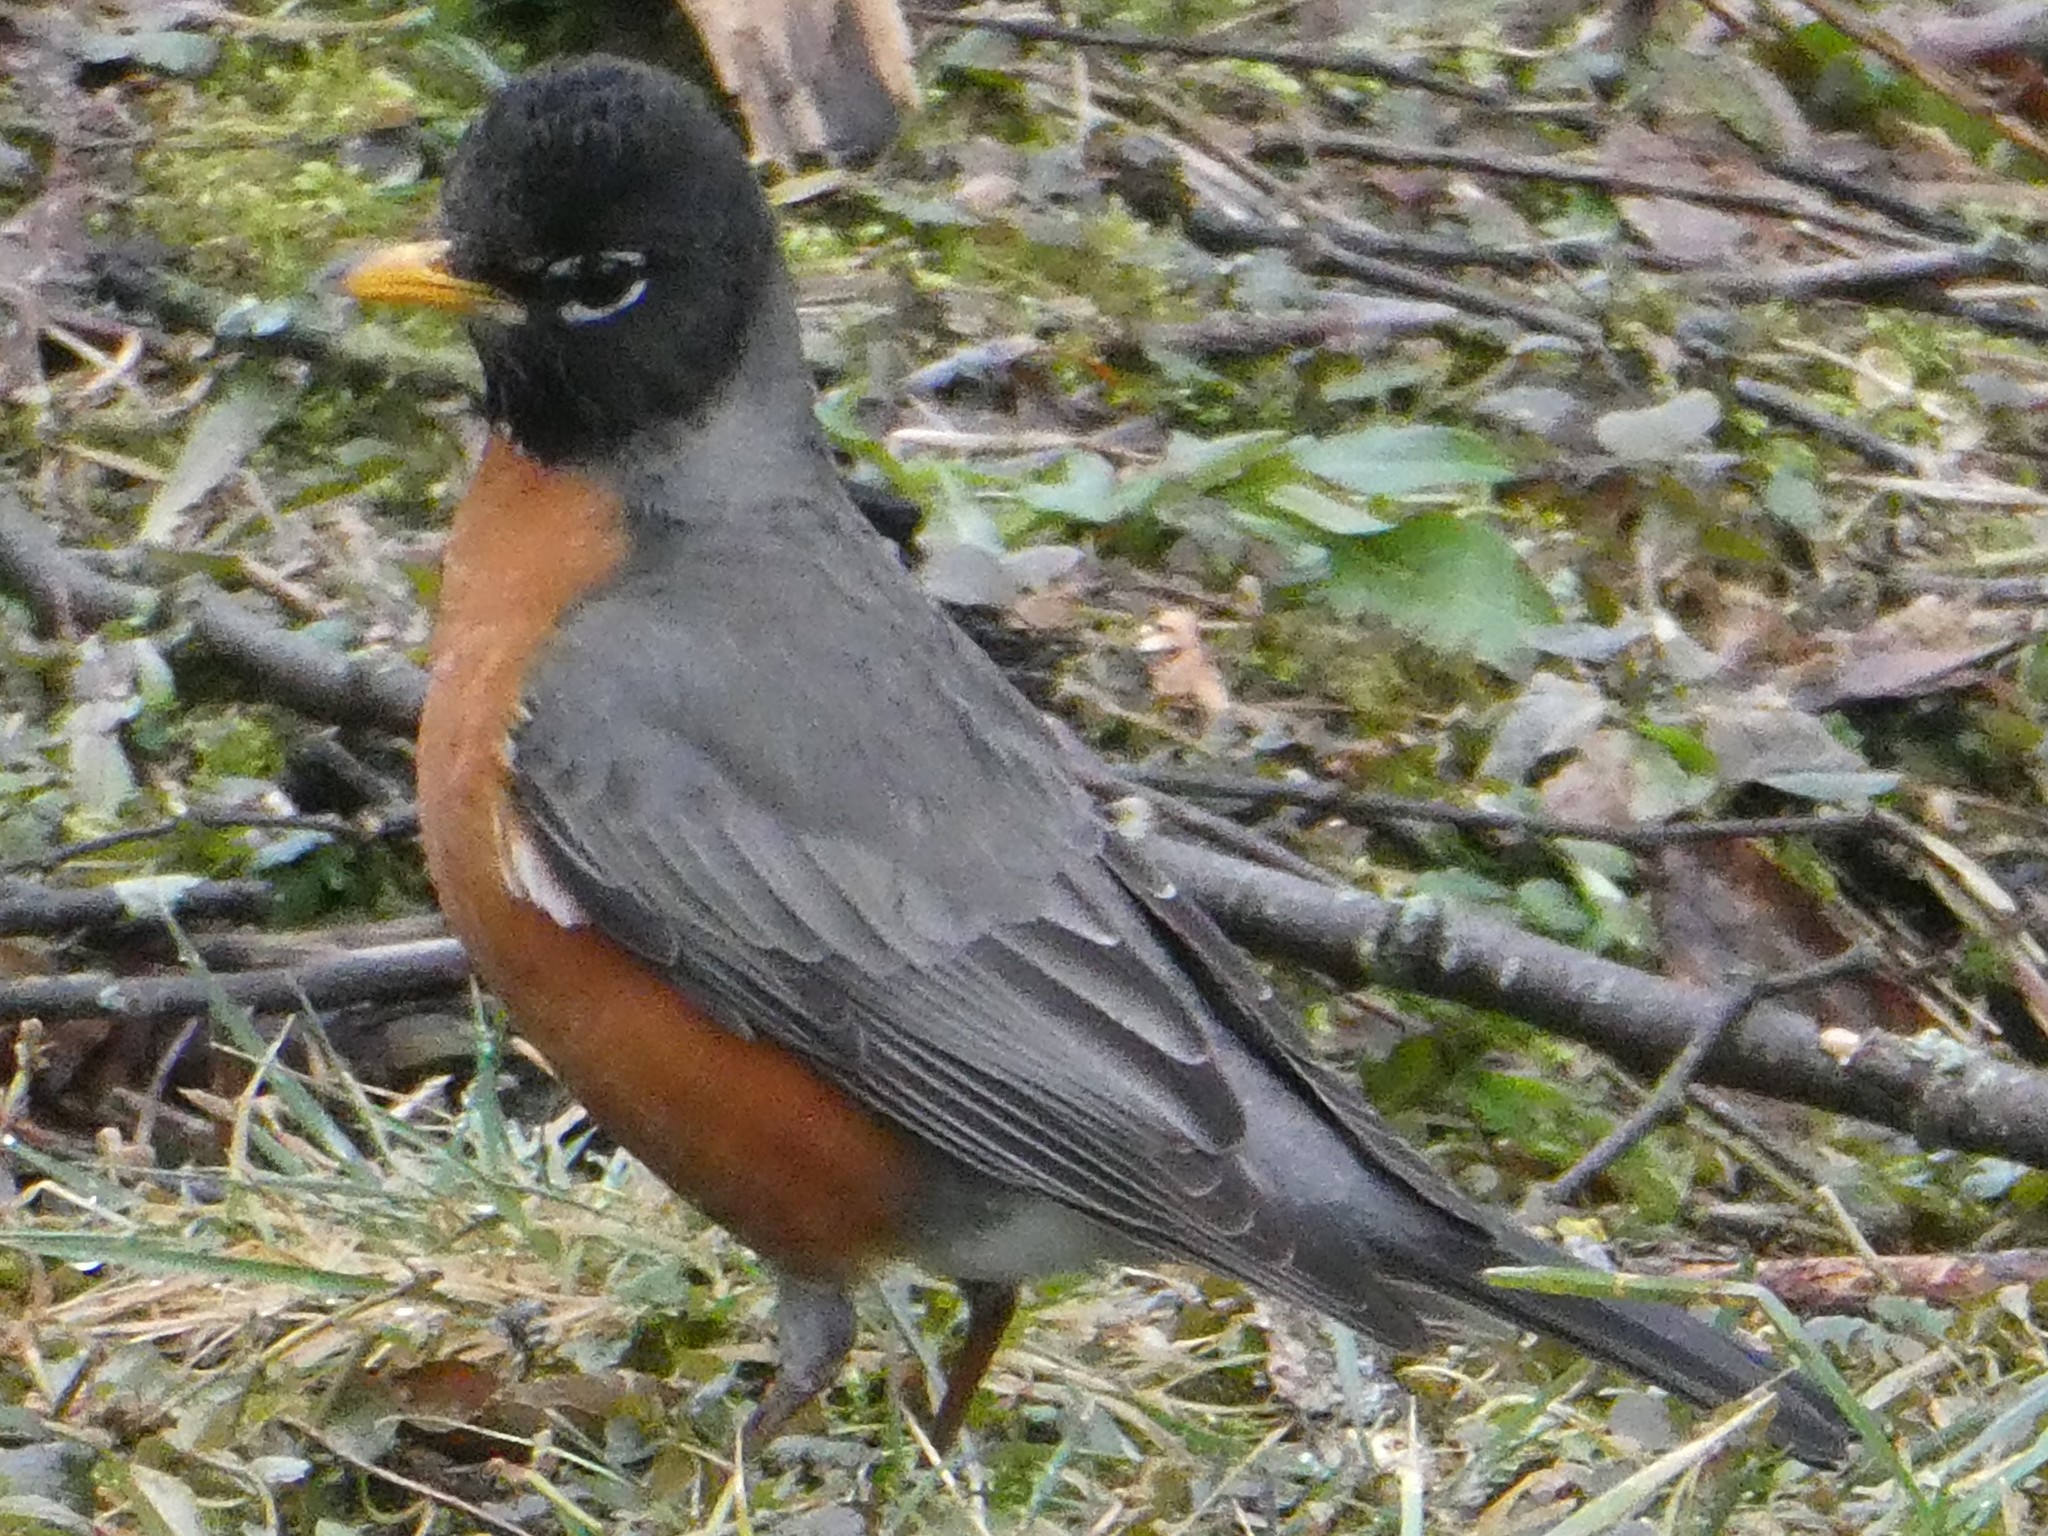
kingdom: Animalia
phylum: Chordata
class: Aves
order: Passeriformes
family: Turdidae
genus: Turdus
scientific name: Turdus migratorius
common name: American robin
